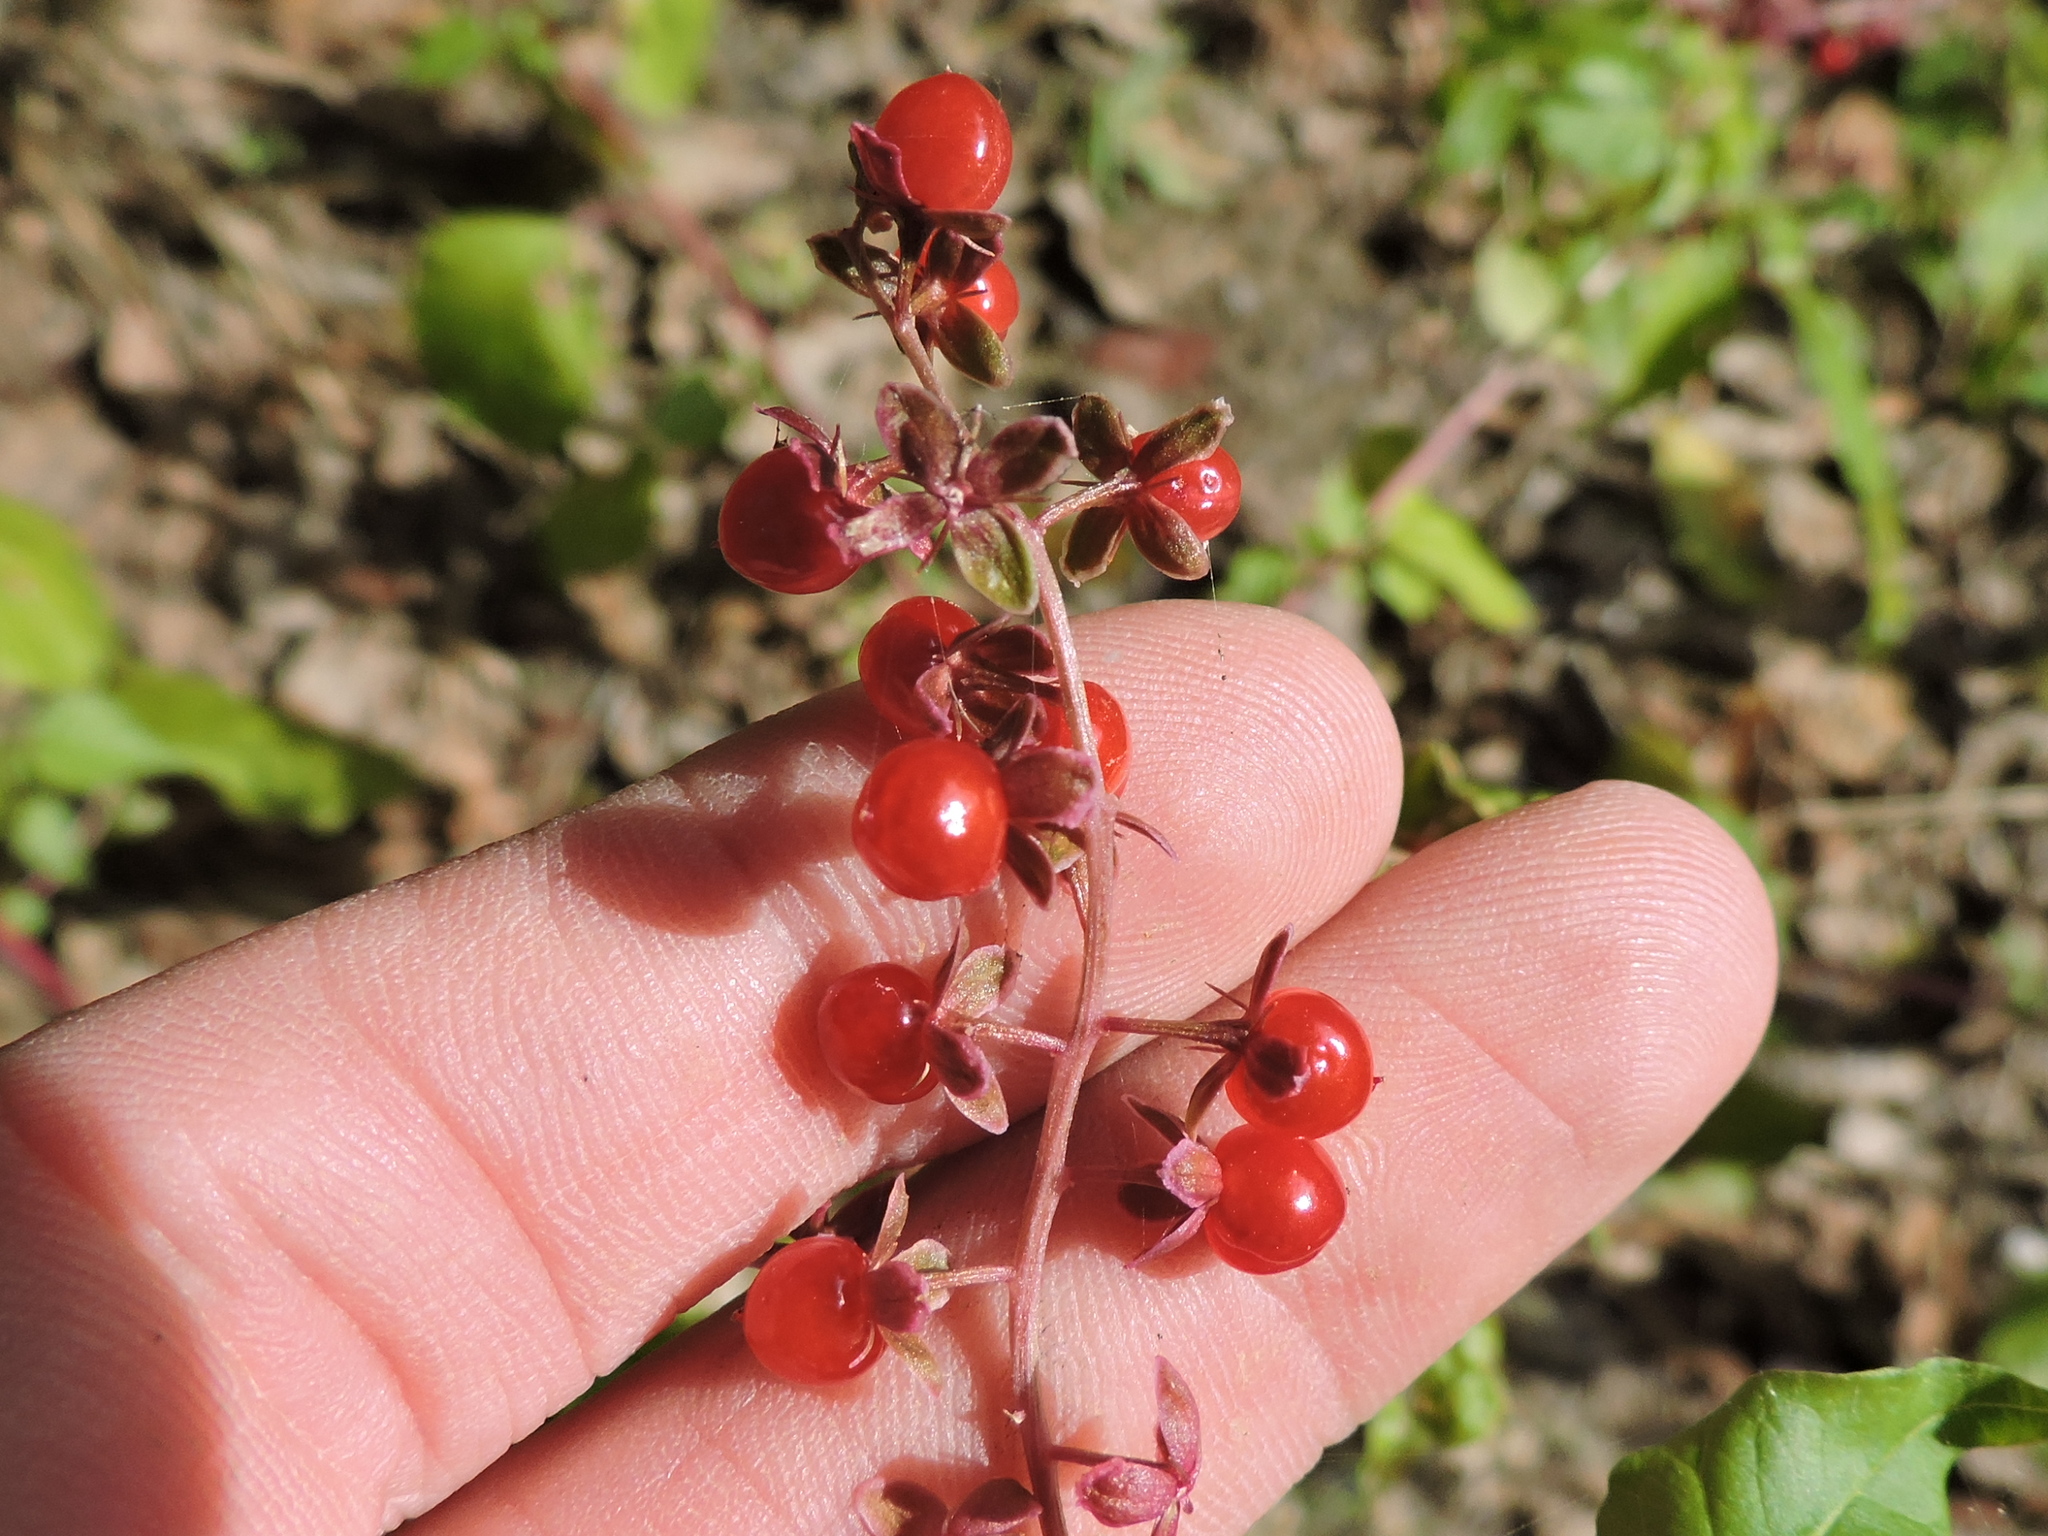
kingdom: Plantae
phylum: Tracheophyta
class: Magnoliopsida
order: Caryophyllales
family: Phytolaccaceae
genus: Rivina
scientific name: Rivina humilis
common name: Rougeplant
